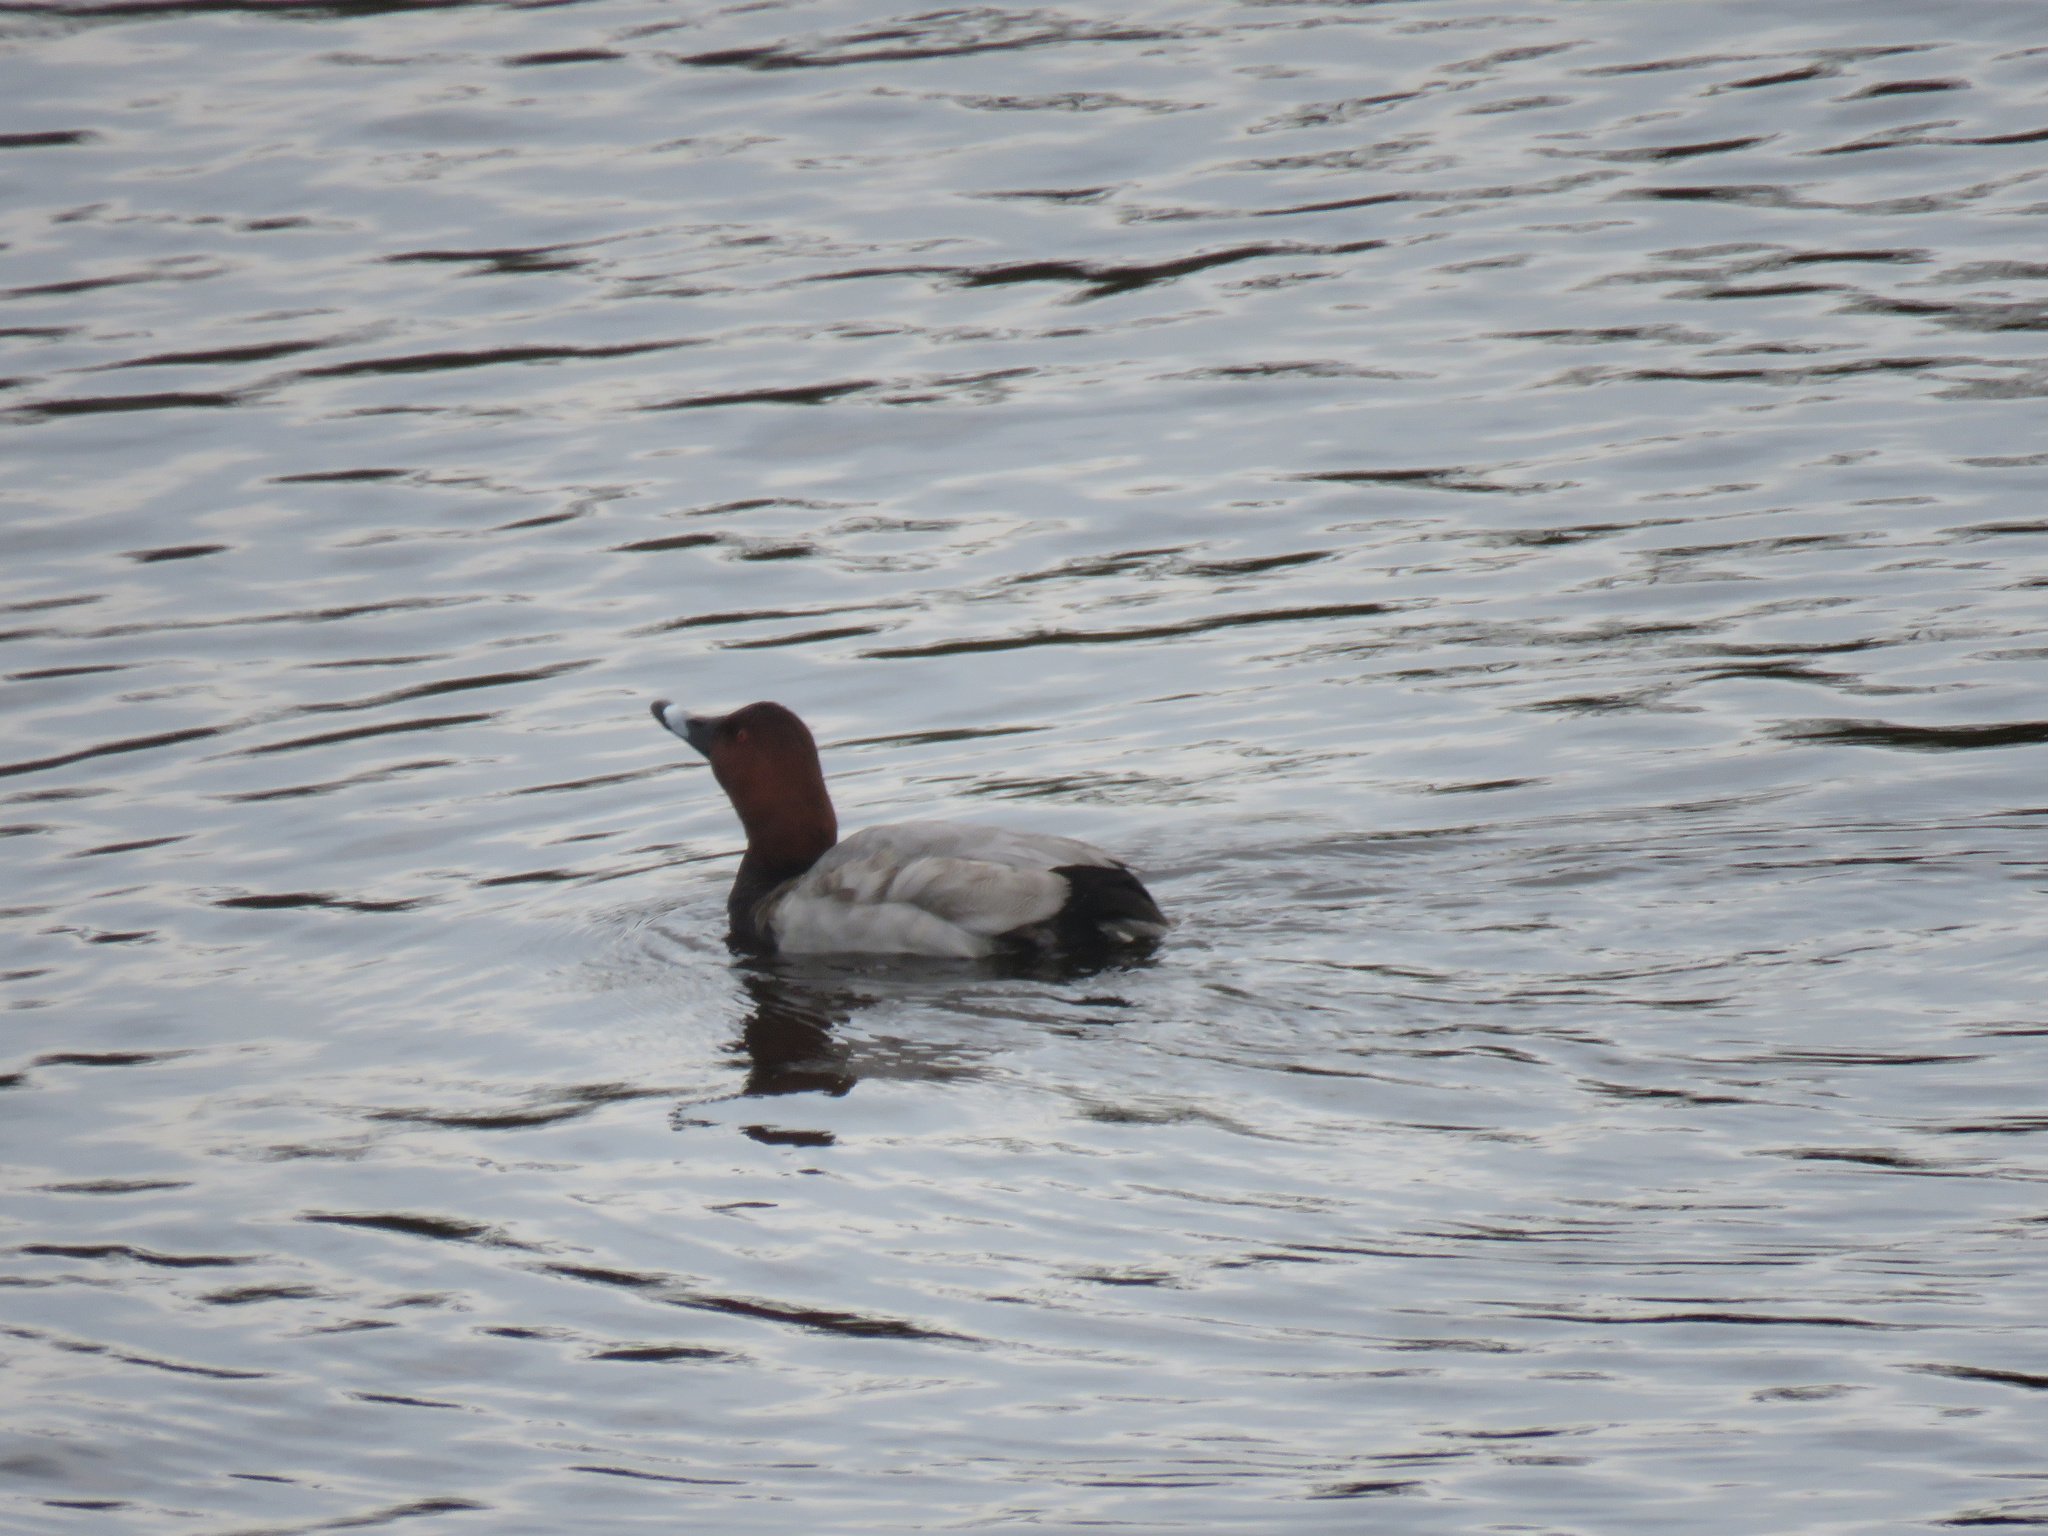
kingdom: Animalia
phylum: Chordata
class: Aves
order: Anseriformes
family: Anatidae
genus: Aythya
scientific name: Aythya ferina
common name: Common pochard
